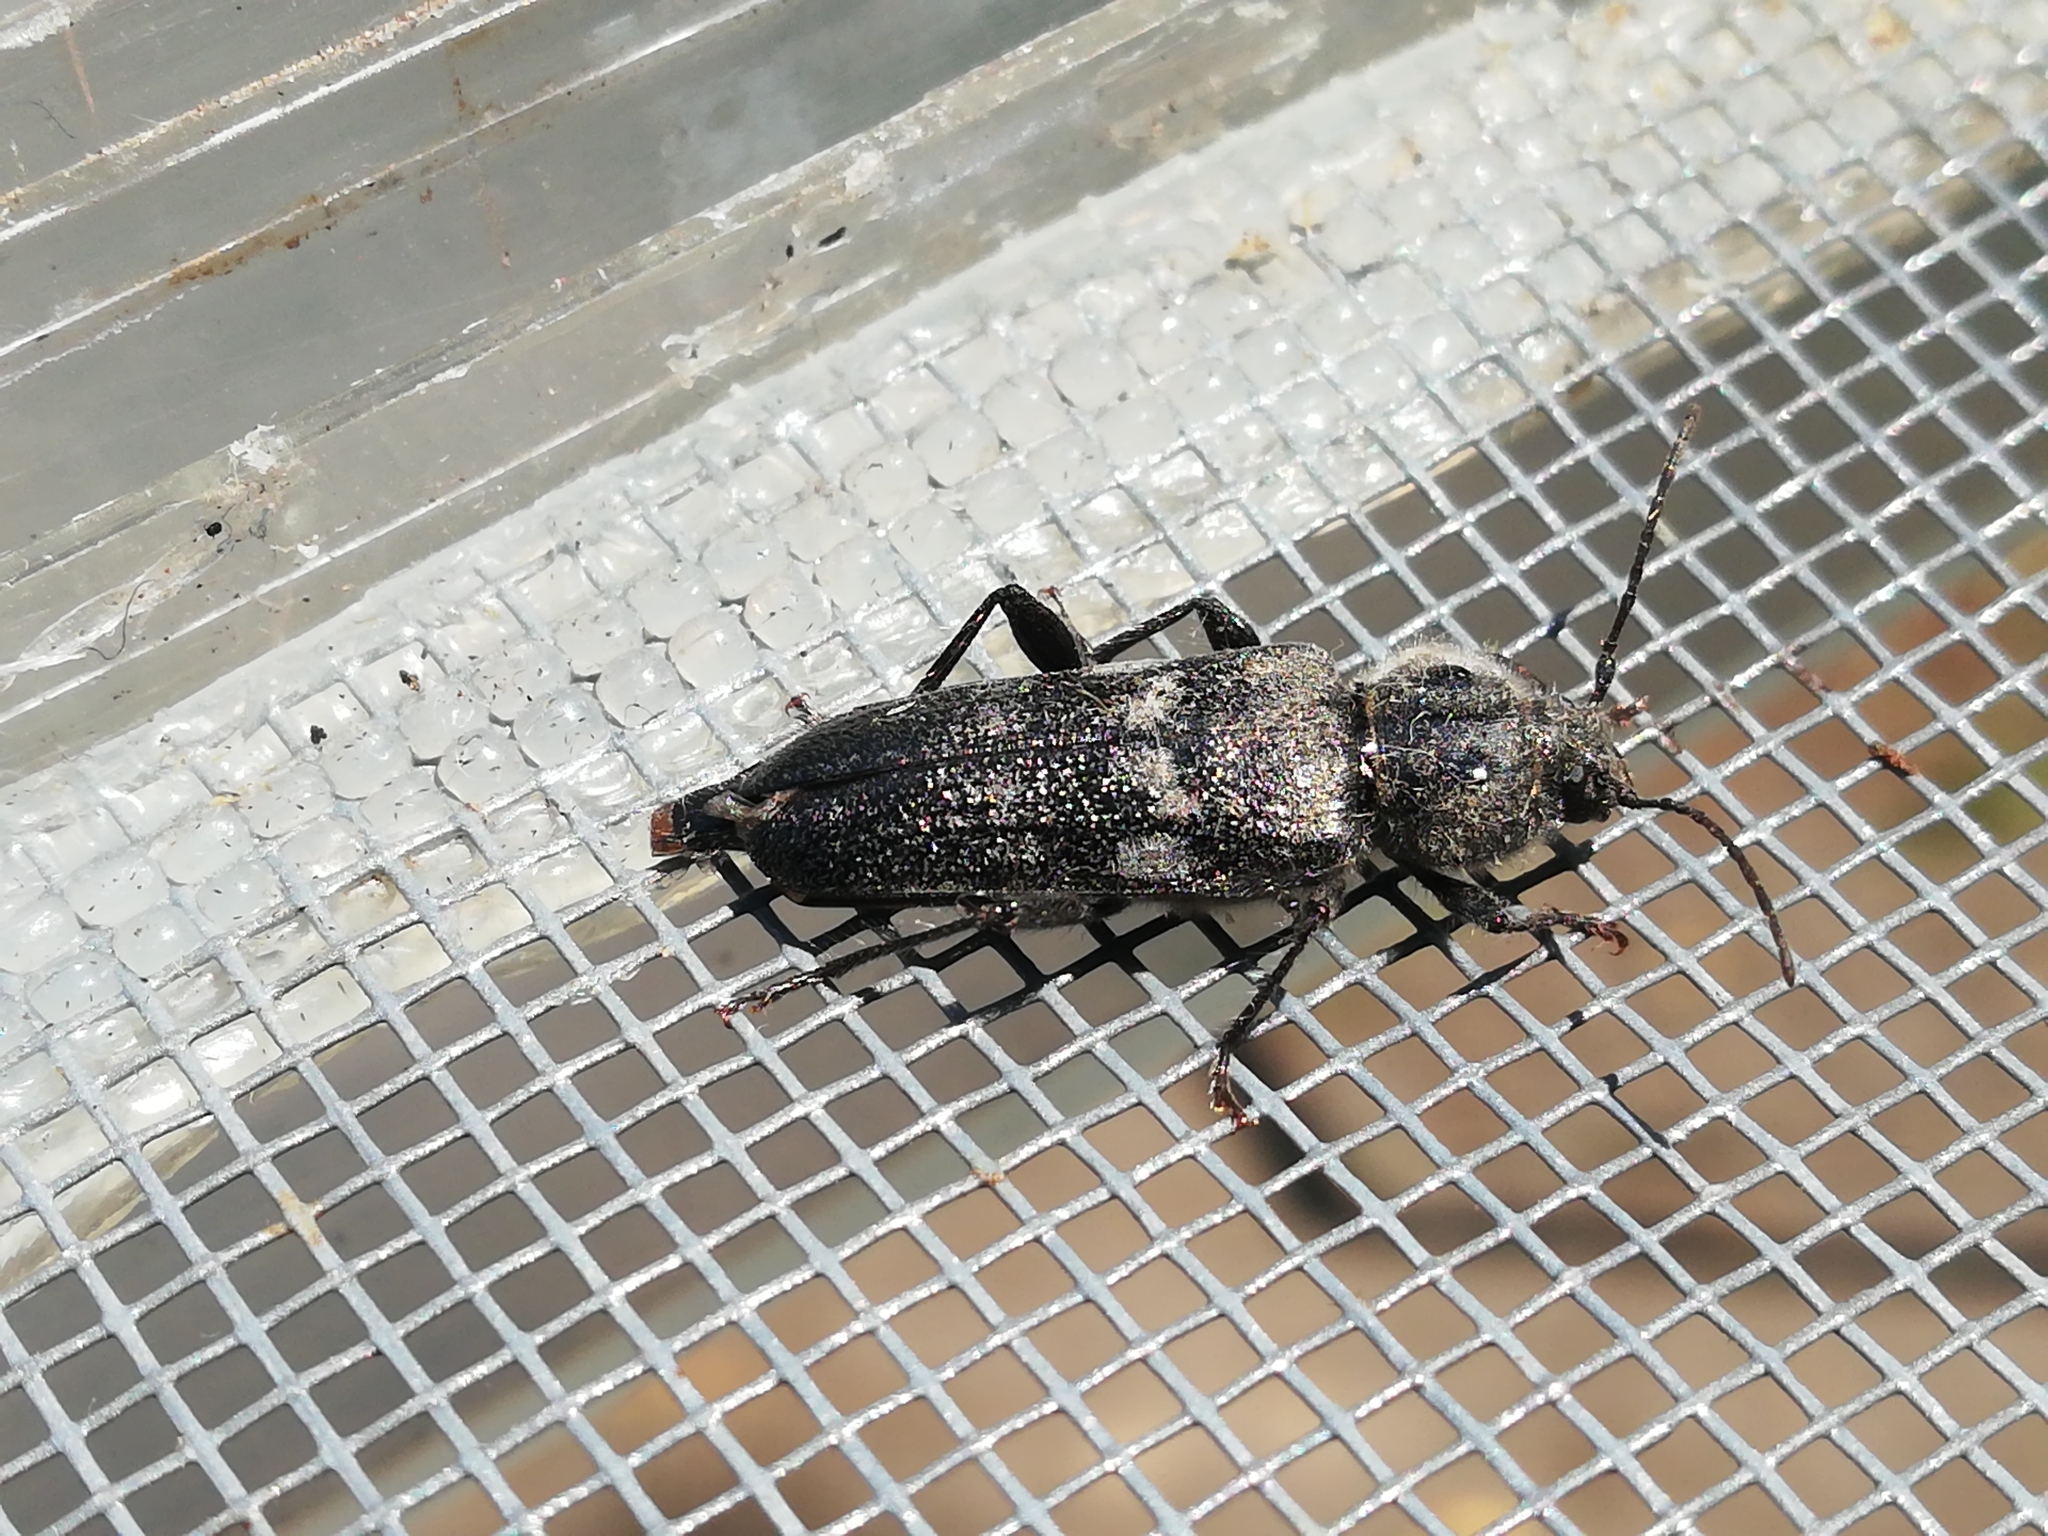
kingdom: Animalia
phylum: Arthropoda
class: Insecta
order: Coleoptera
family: Cerambycidae
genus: Hylotrupes
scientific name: Hylotrupes bajulus
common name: Old house borer
